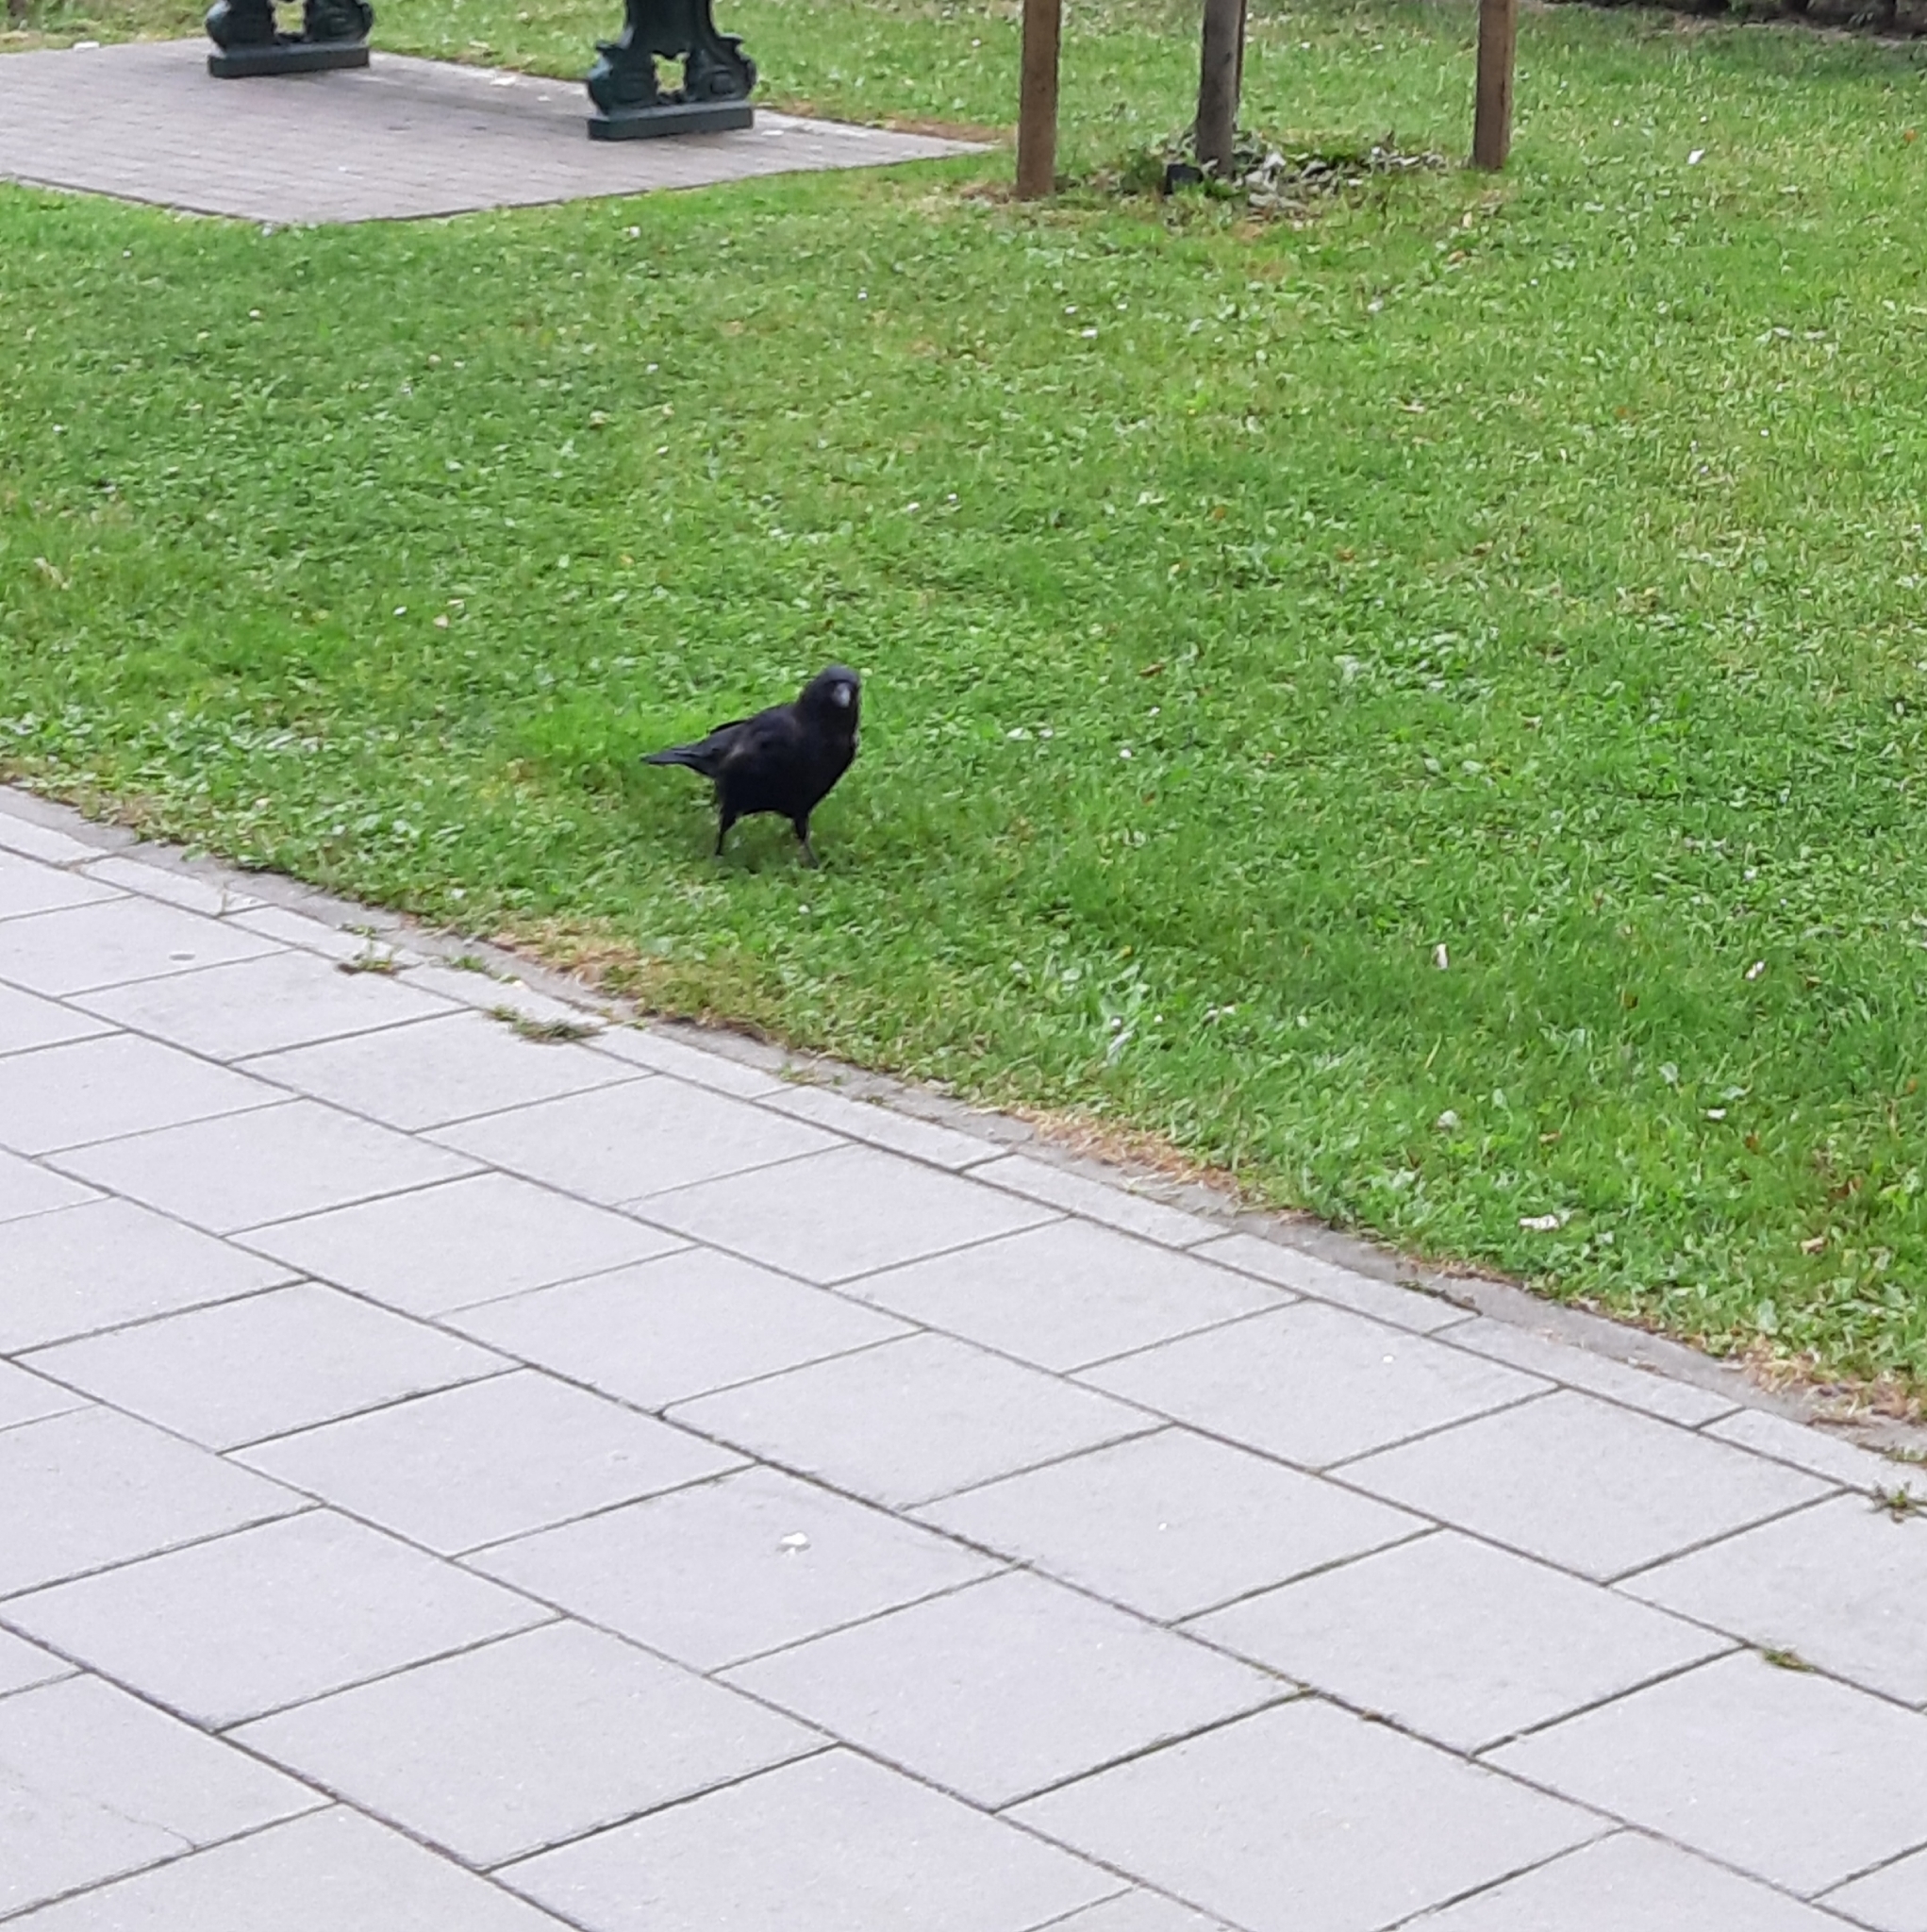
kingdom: Animalia
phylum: Chordata
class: Aves
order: Passeriformes
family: Corvidae
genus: Corvus
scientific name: Corvus corone
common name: Carrion crow
